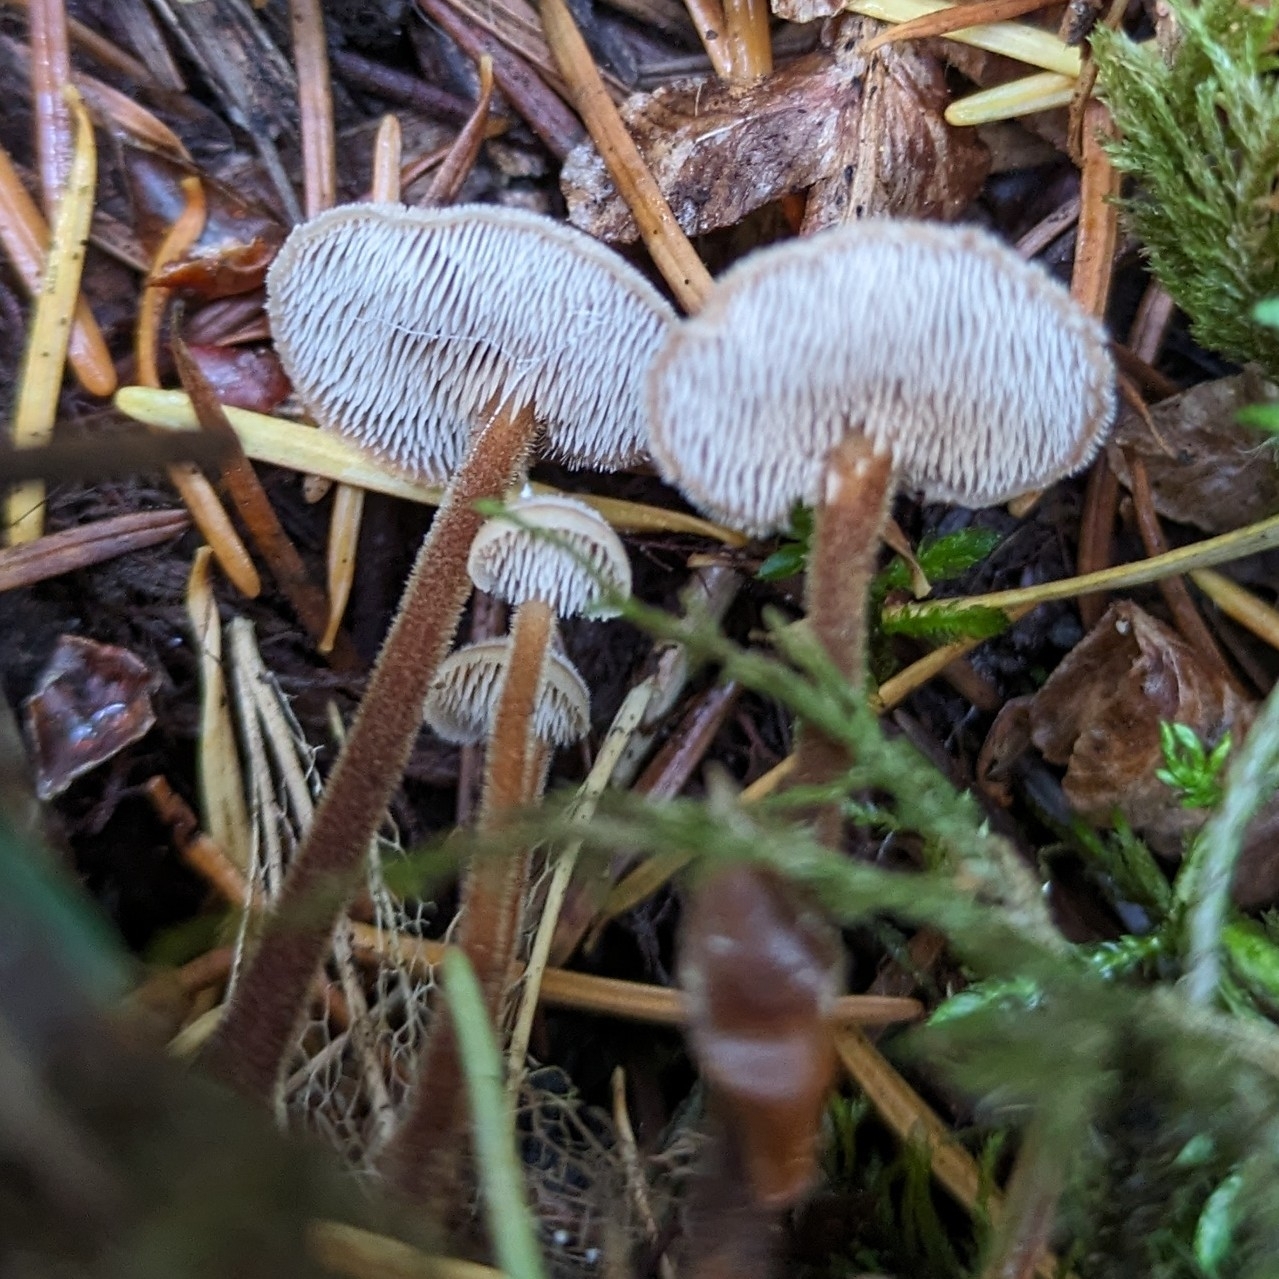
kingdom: Fungi
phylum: Basidiomycota
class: Agaricomycetes
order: Russulales
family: Auriscalpiaceae
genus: Auriscalpium
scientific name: Auriscalpium vulgare
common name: Earpick fungus
